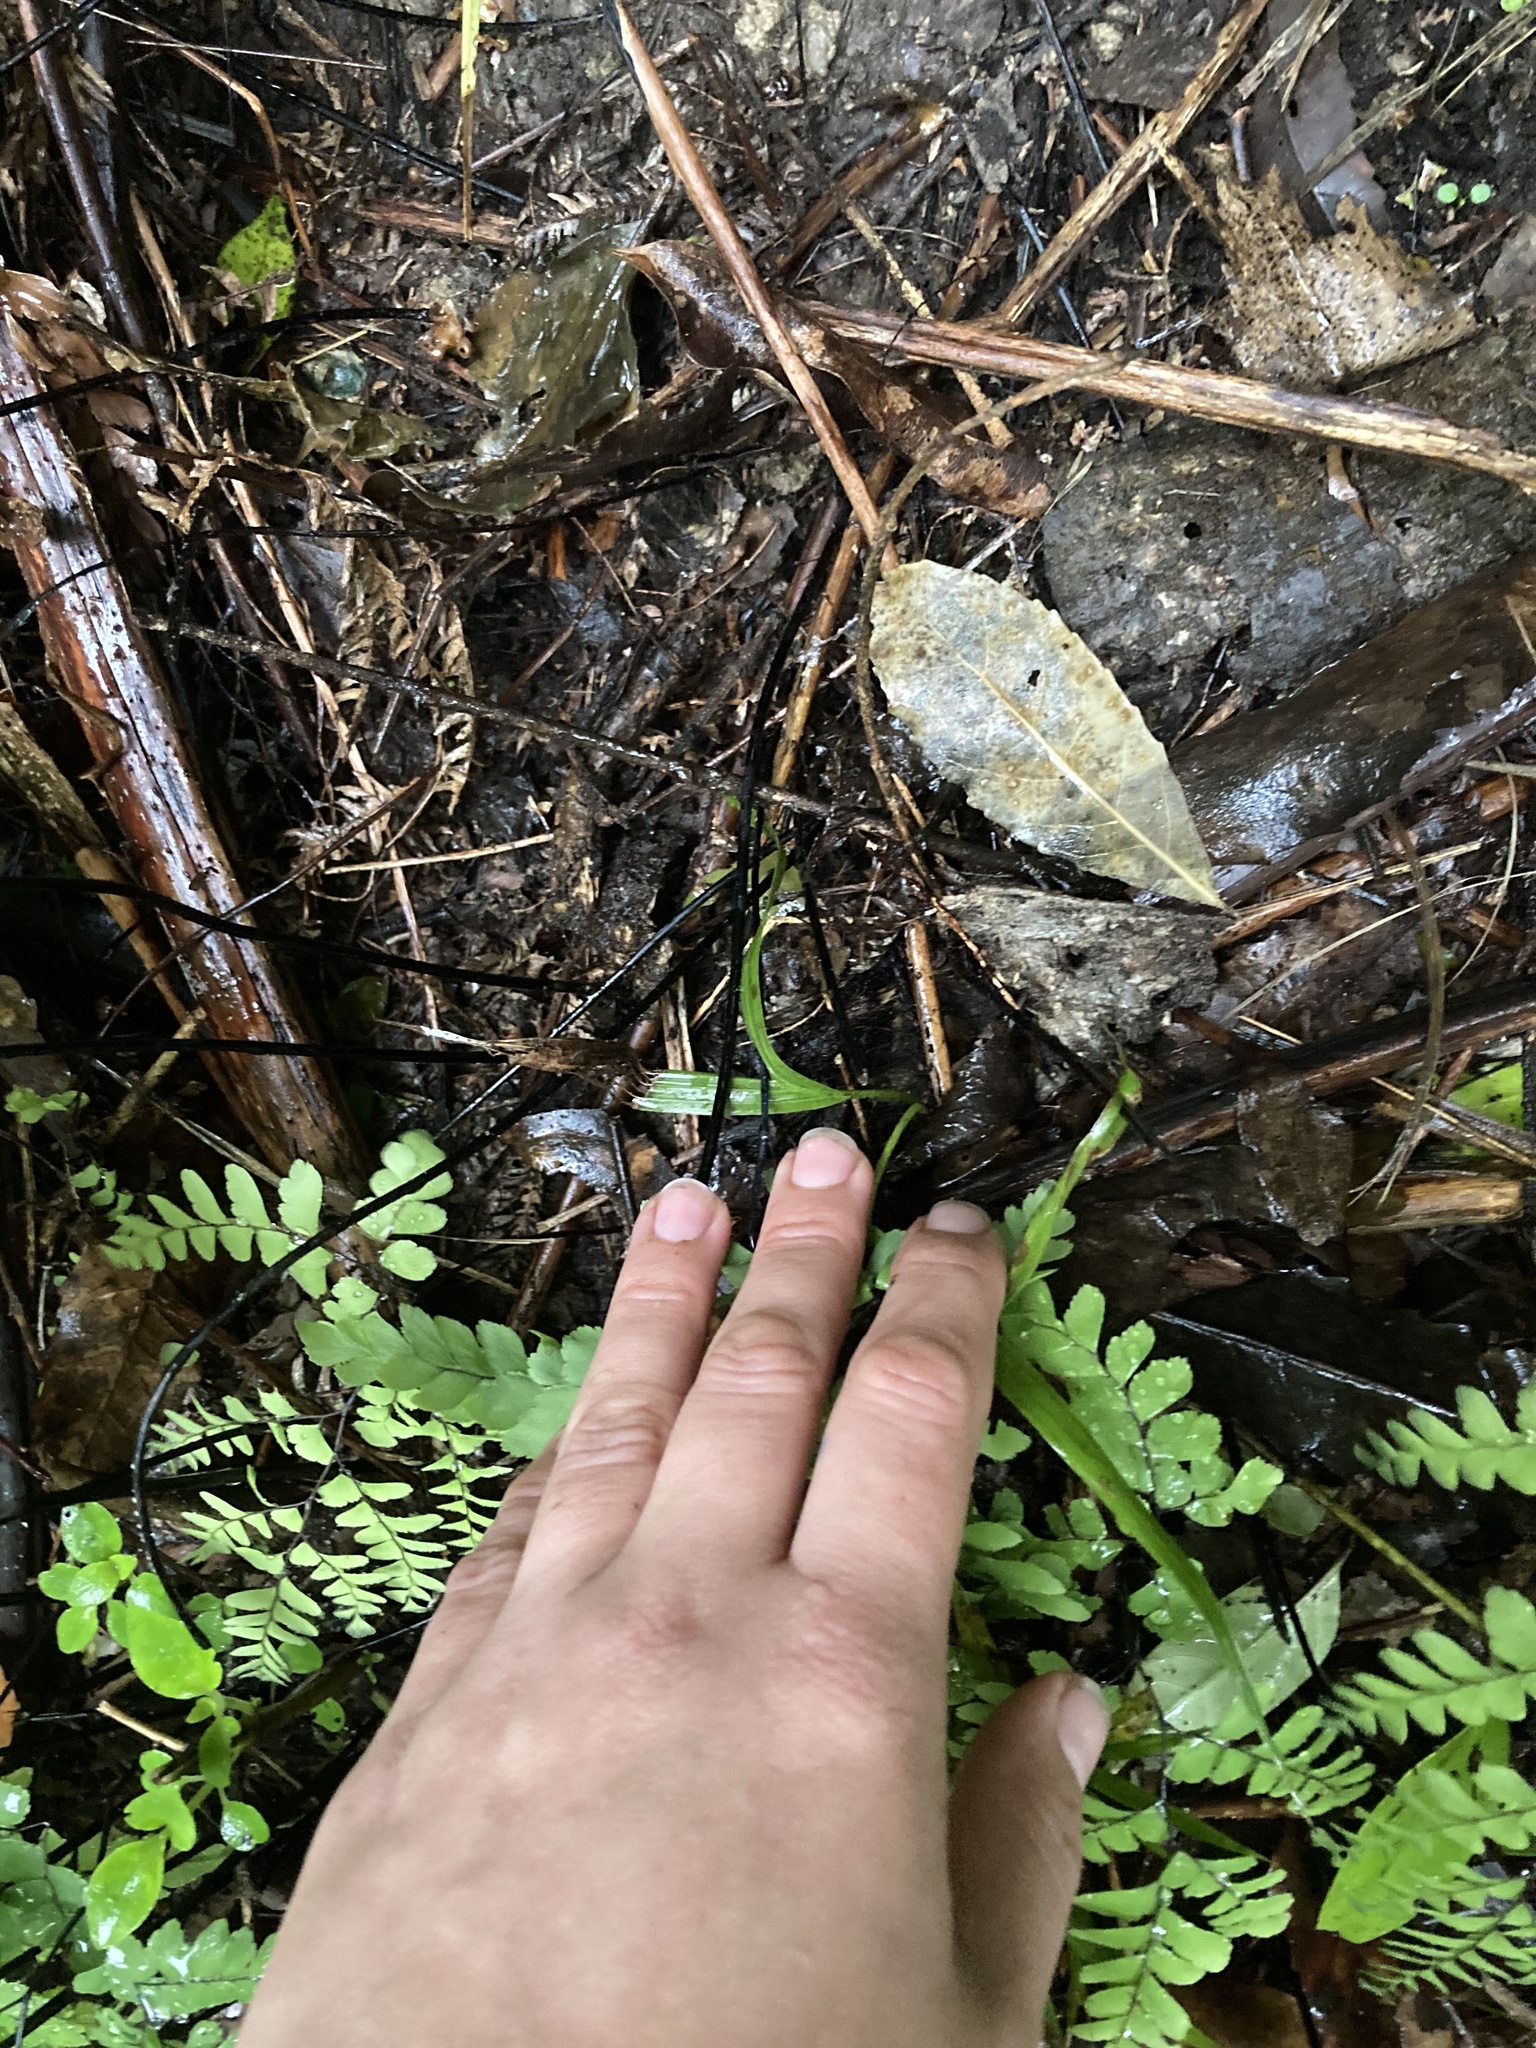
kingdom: Plantae
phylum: Tracheophyta
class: Polypodiopsida
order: Polypodiales
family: Pteridaceae
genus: Adiantum
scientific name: Adiantum cunninghamii
